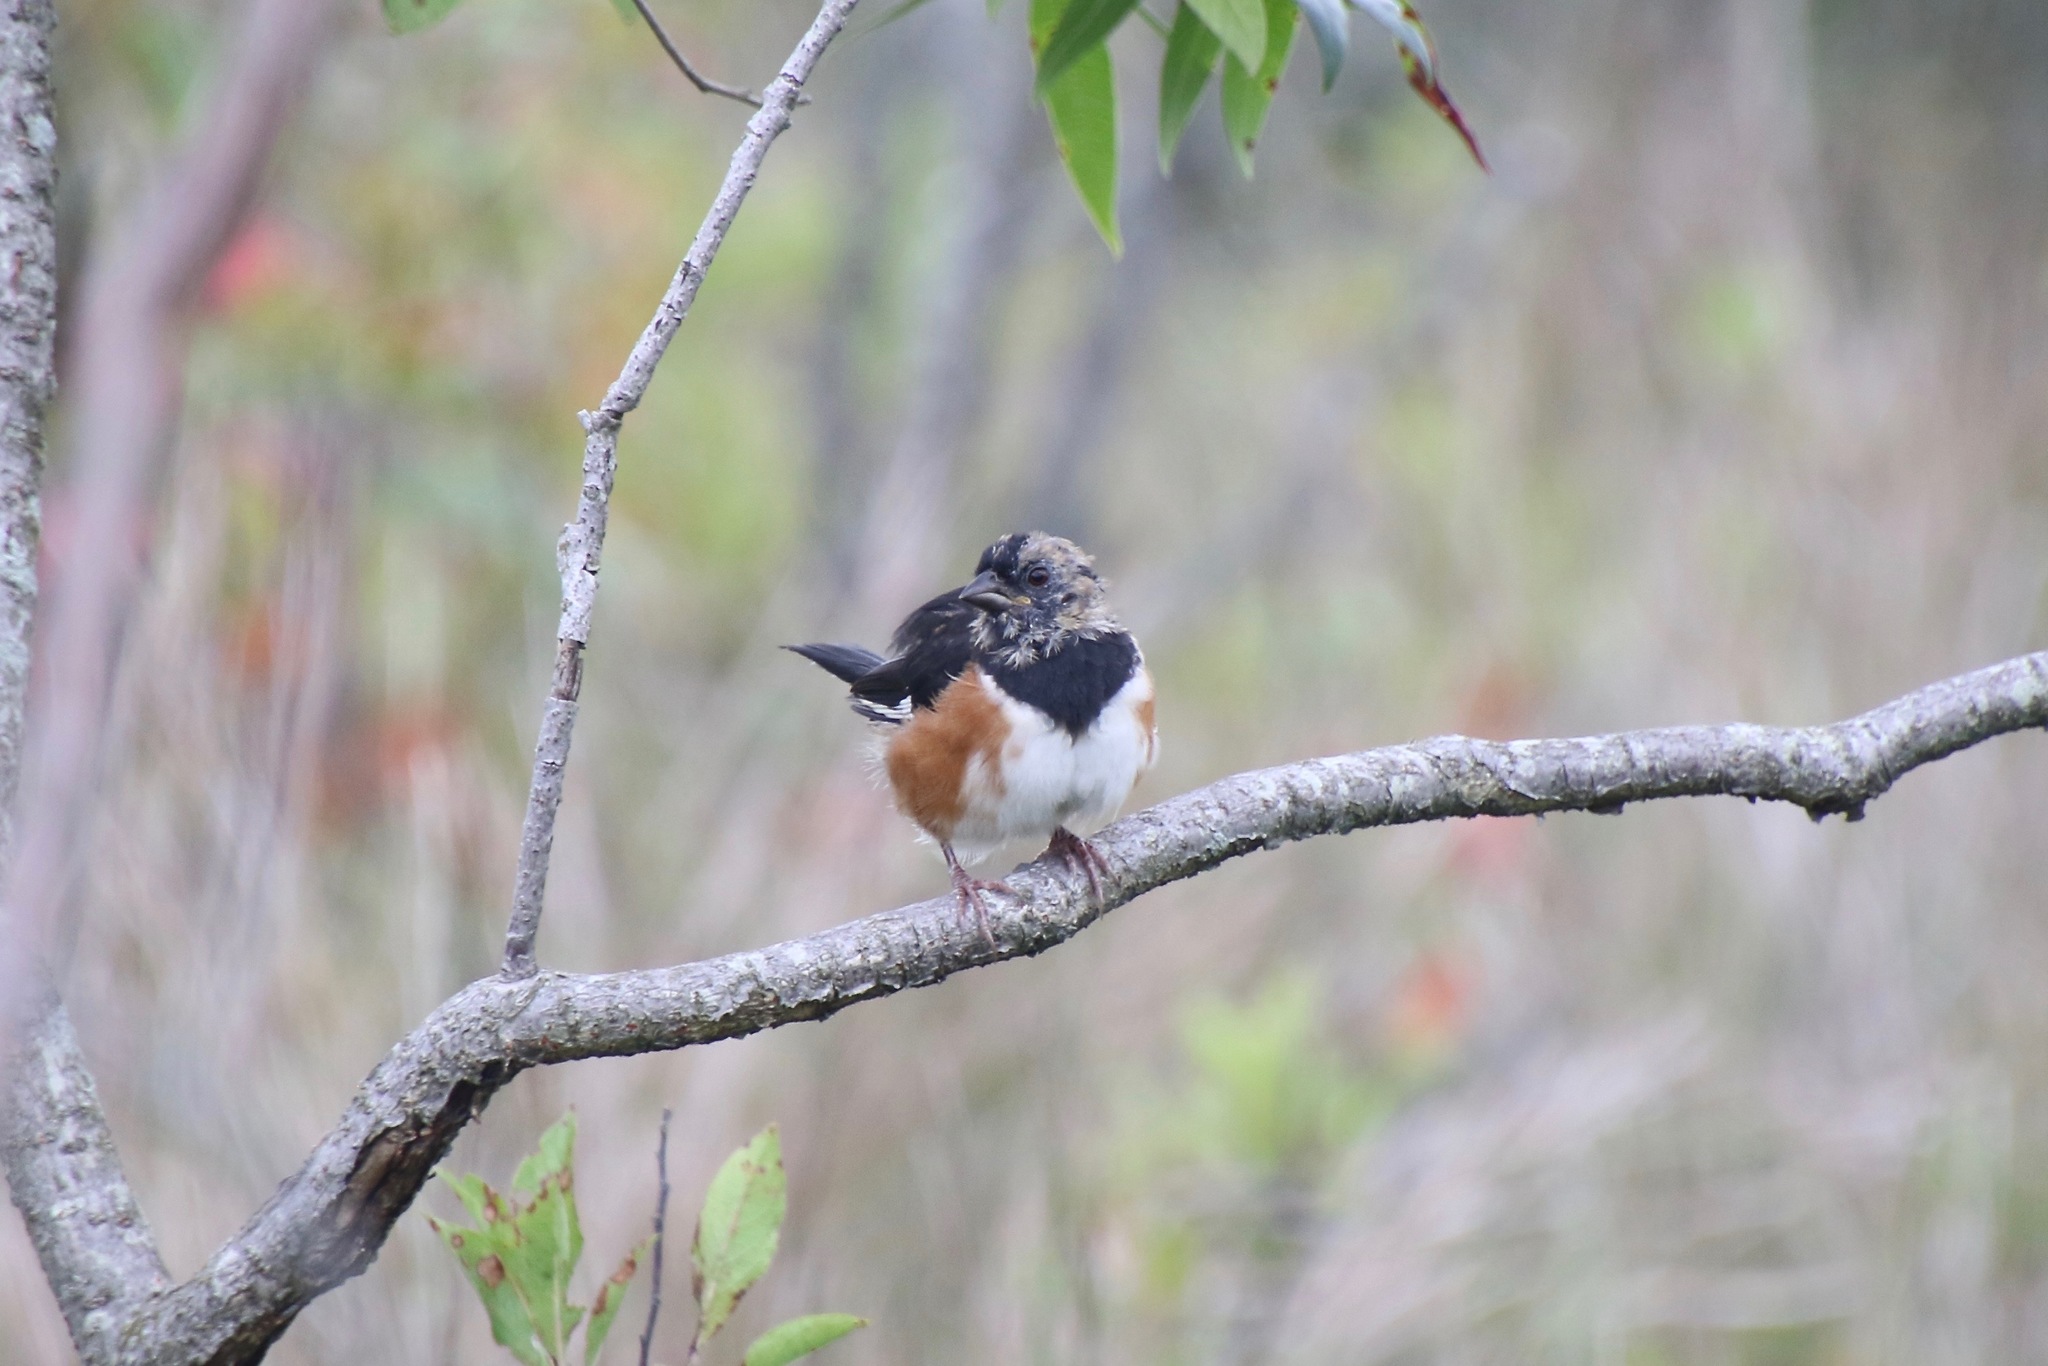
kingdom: Animalia
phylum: Chordata
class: Aves
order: Passeriformes
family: Passerellidae
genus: Pipilo
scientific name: Pipilo erythrophthalmus
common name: Eastern towhee
